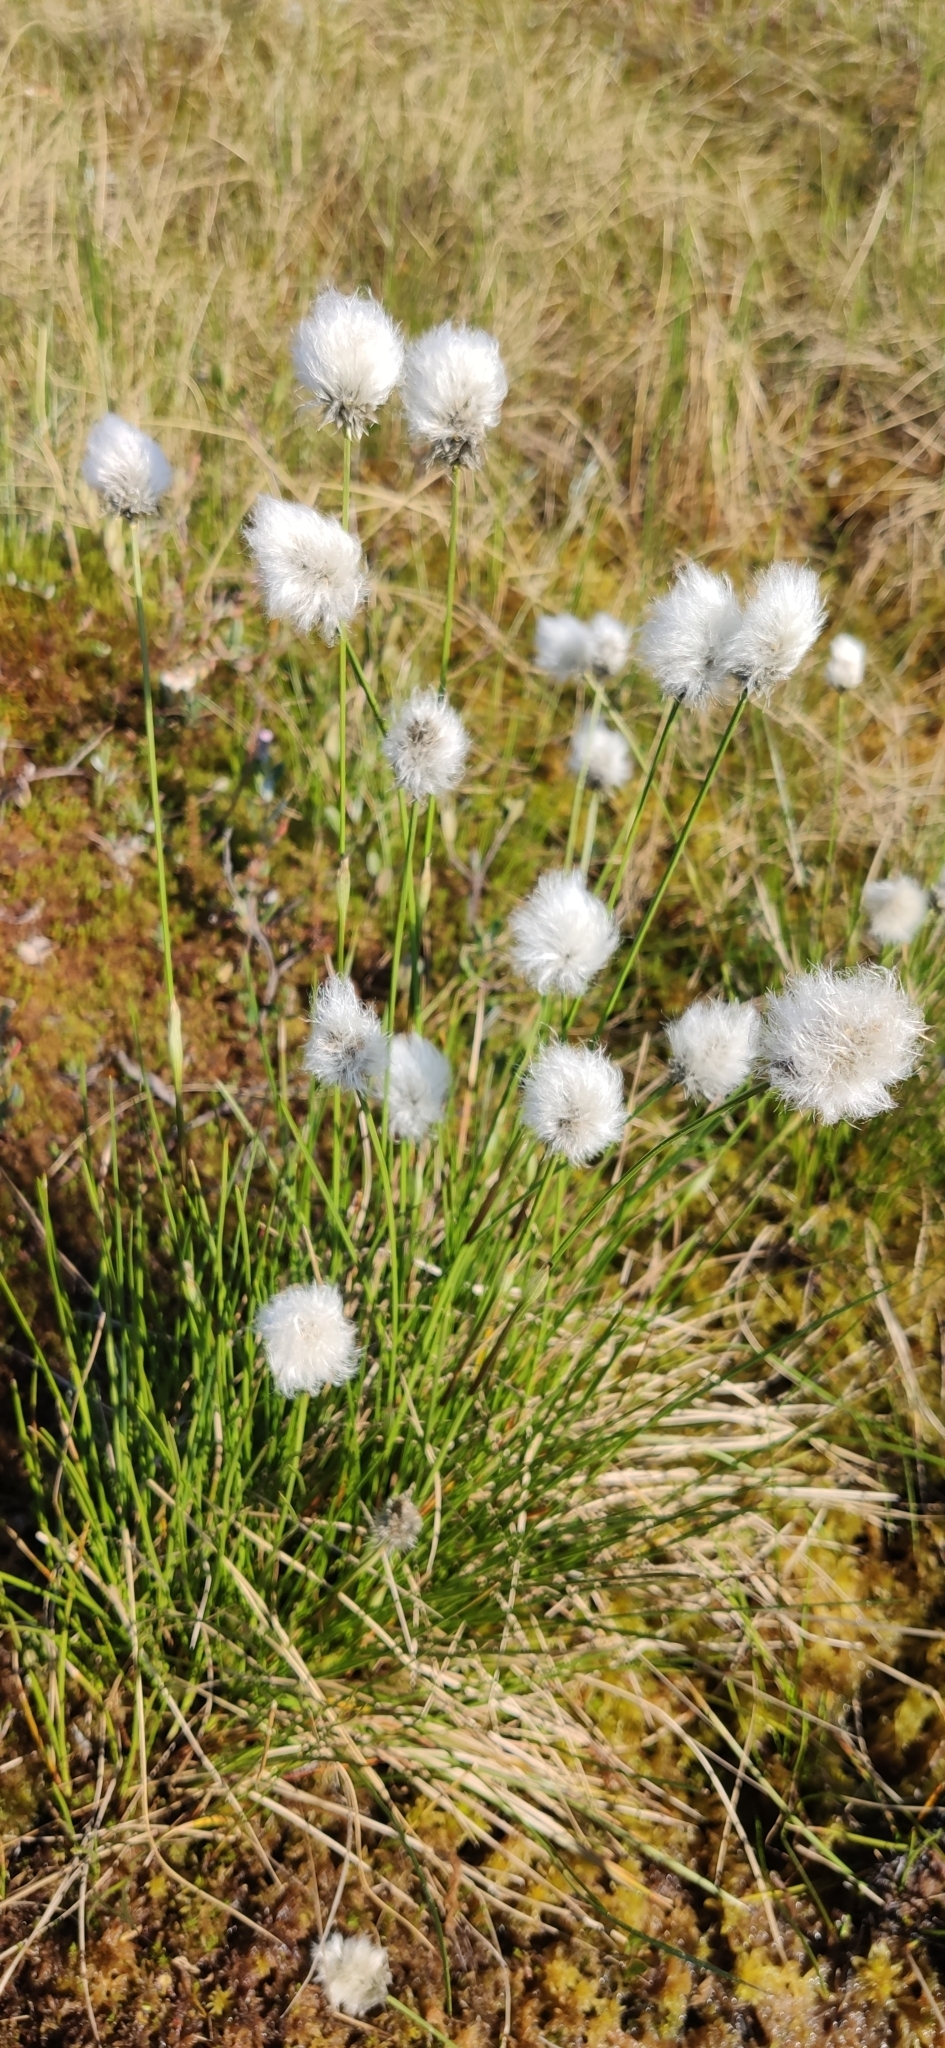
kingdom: Plantae
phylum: Tracheophyta
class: Liliopsida
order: Poales
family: Cyperaceae
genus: Eriophorum
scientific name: Eriophorum vaginatum
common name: Hare's-tail cottongrass
